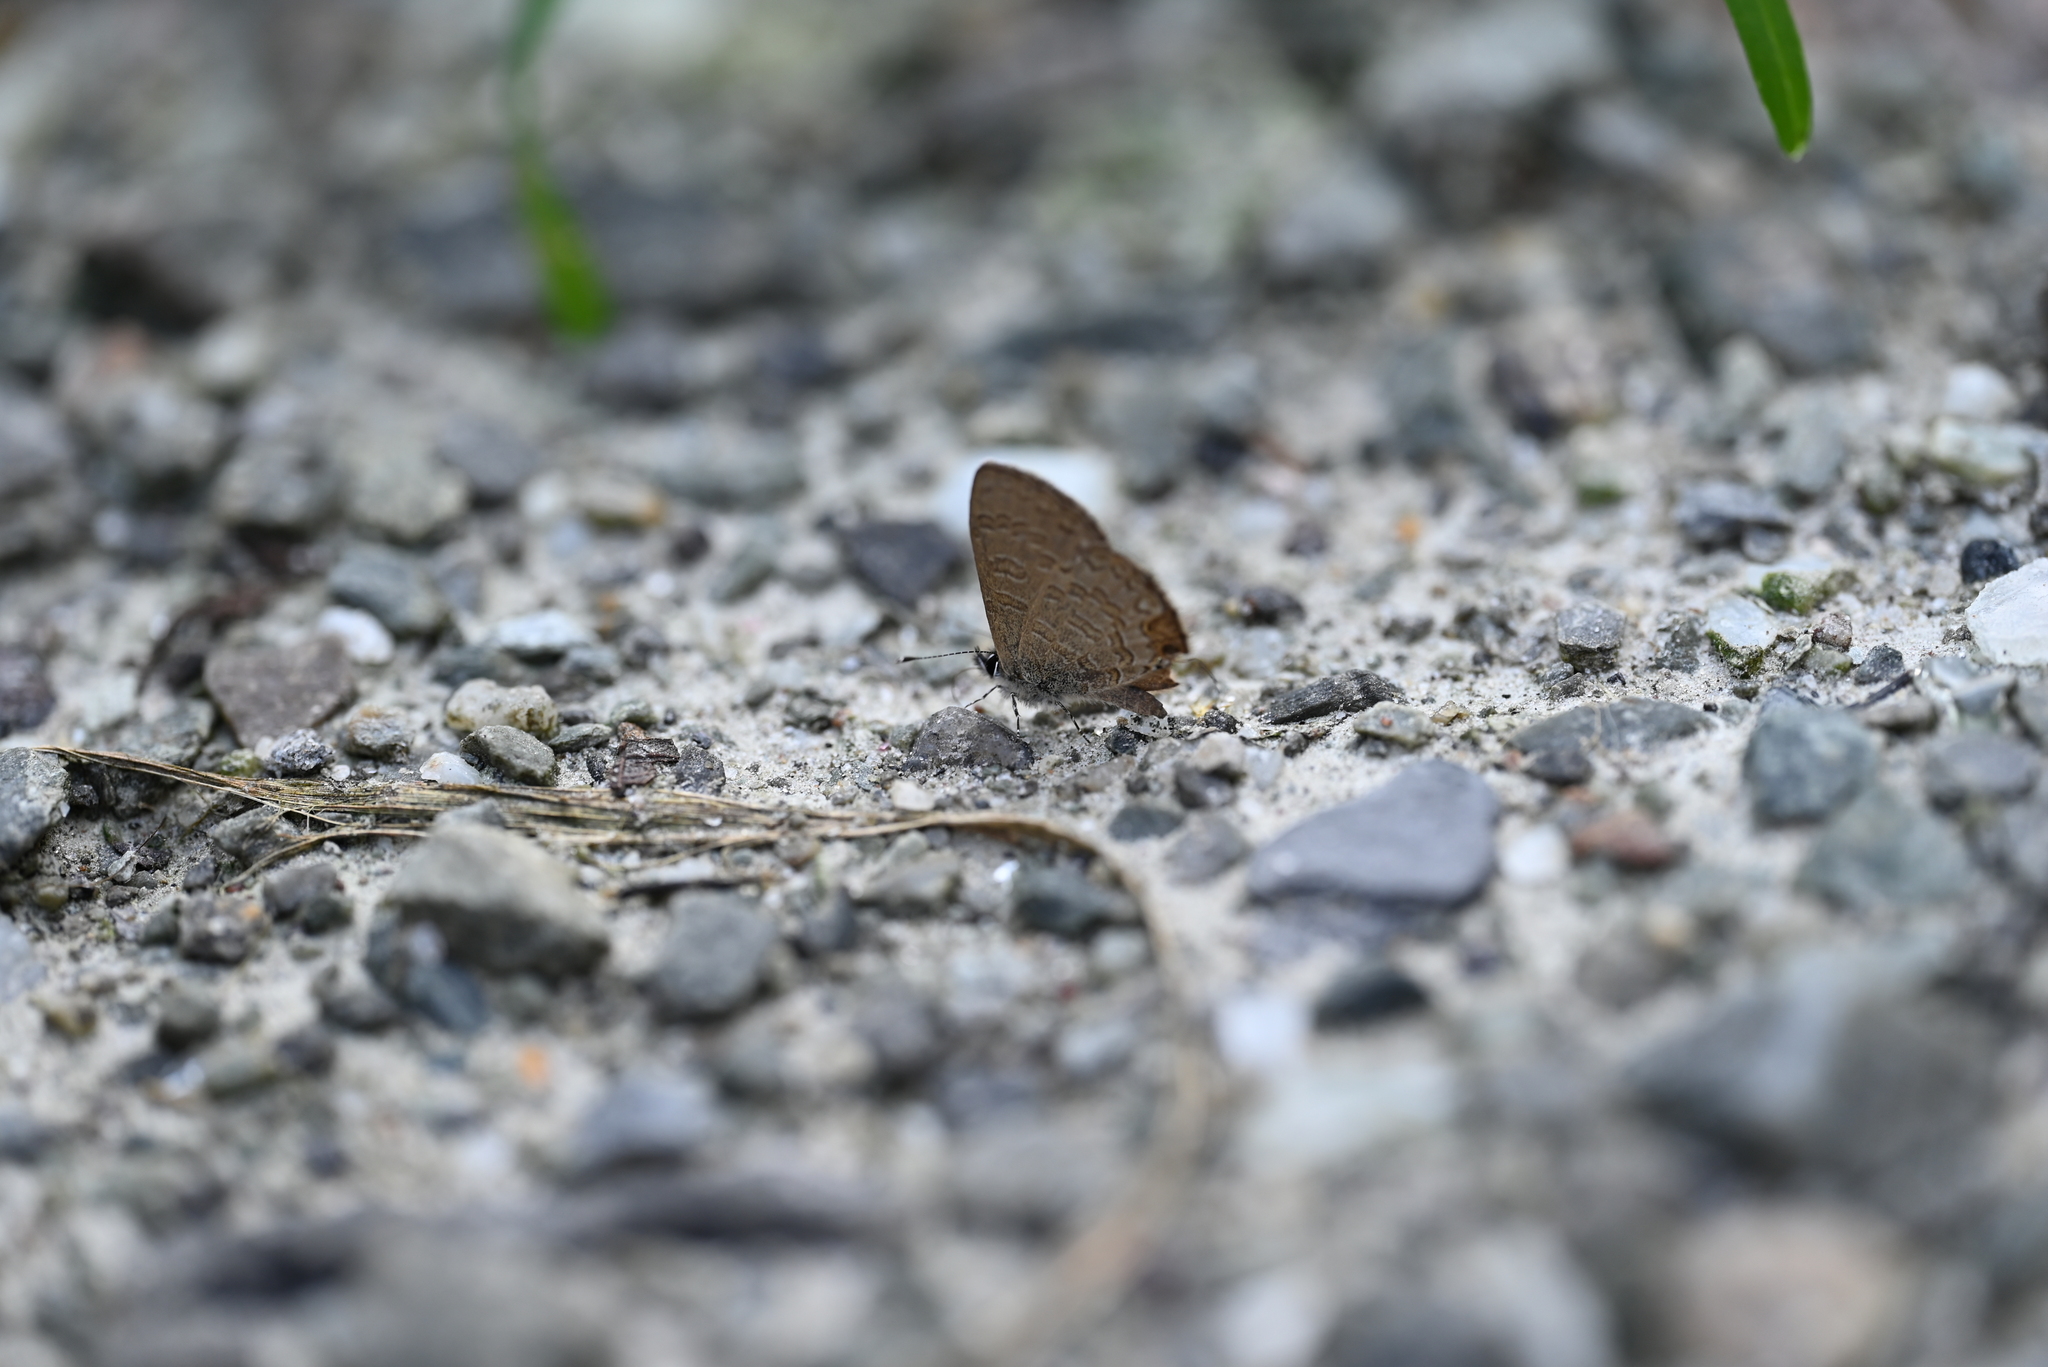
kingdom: Animalia
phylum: Arthropoda
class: Insecta
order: Lepidoptera
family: Lycaenidae
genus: Prosotas
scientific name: Prosotas nora
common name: Common line blue
